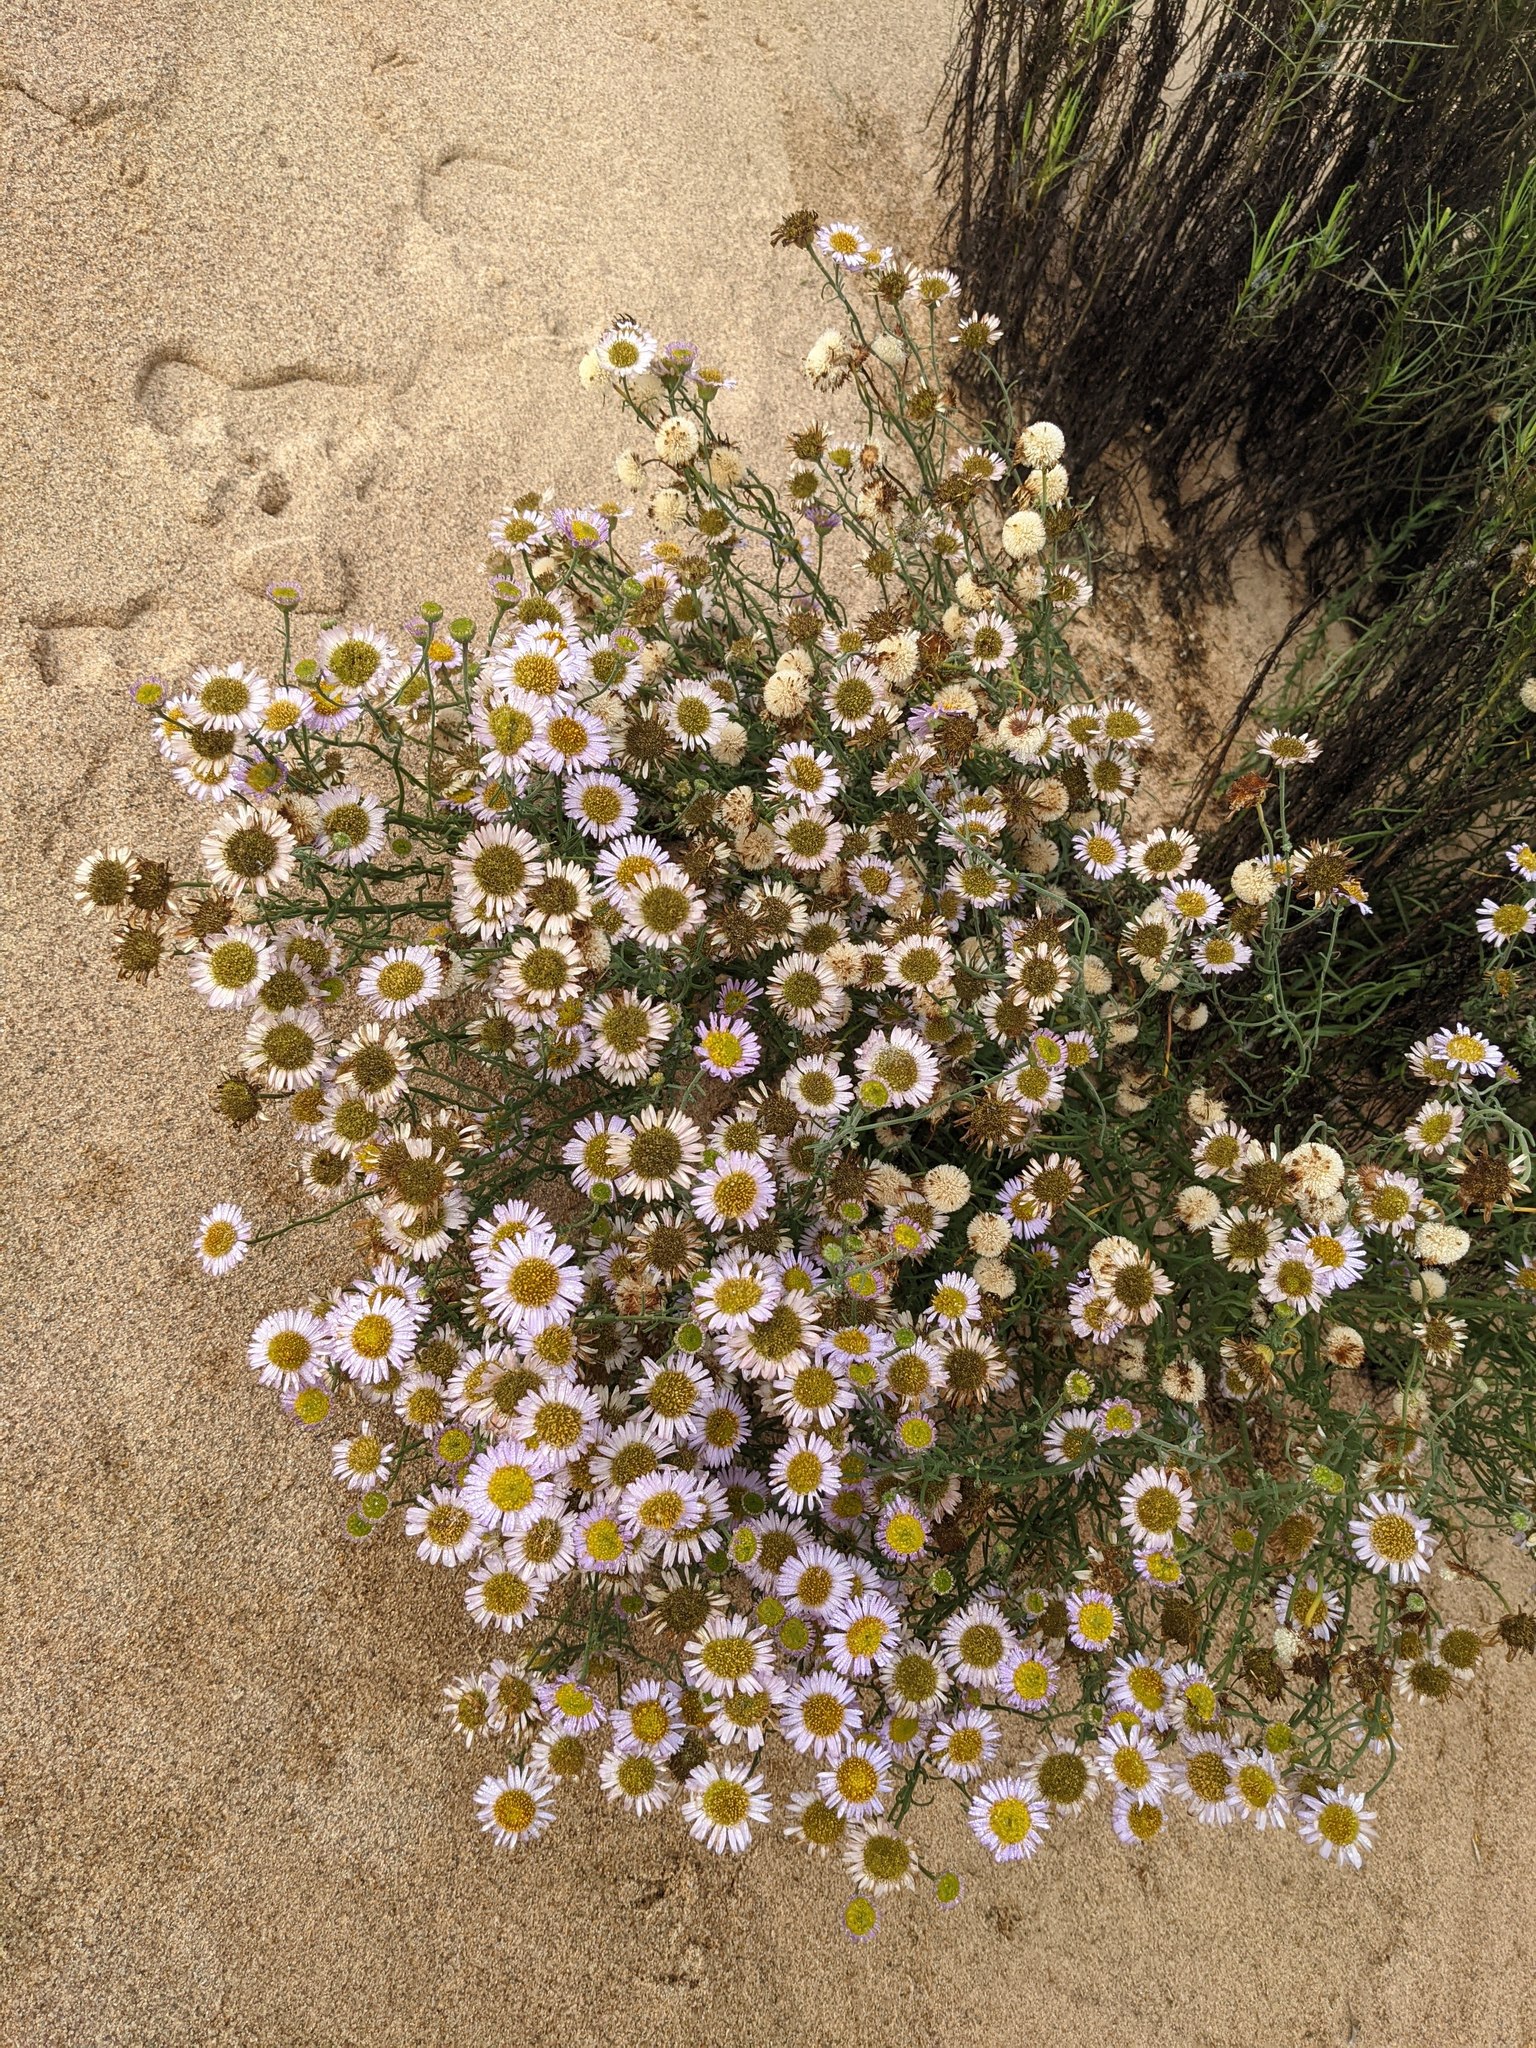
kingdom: Plantae
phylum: Tracheophyta
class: Magnoliopsida
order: Asterales
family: Asteraceae
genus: Erigeron
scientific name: Erigeron blochmaniae
